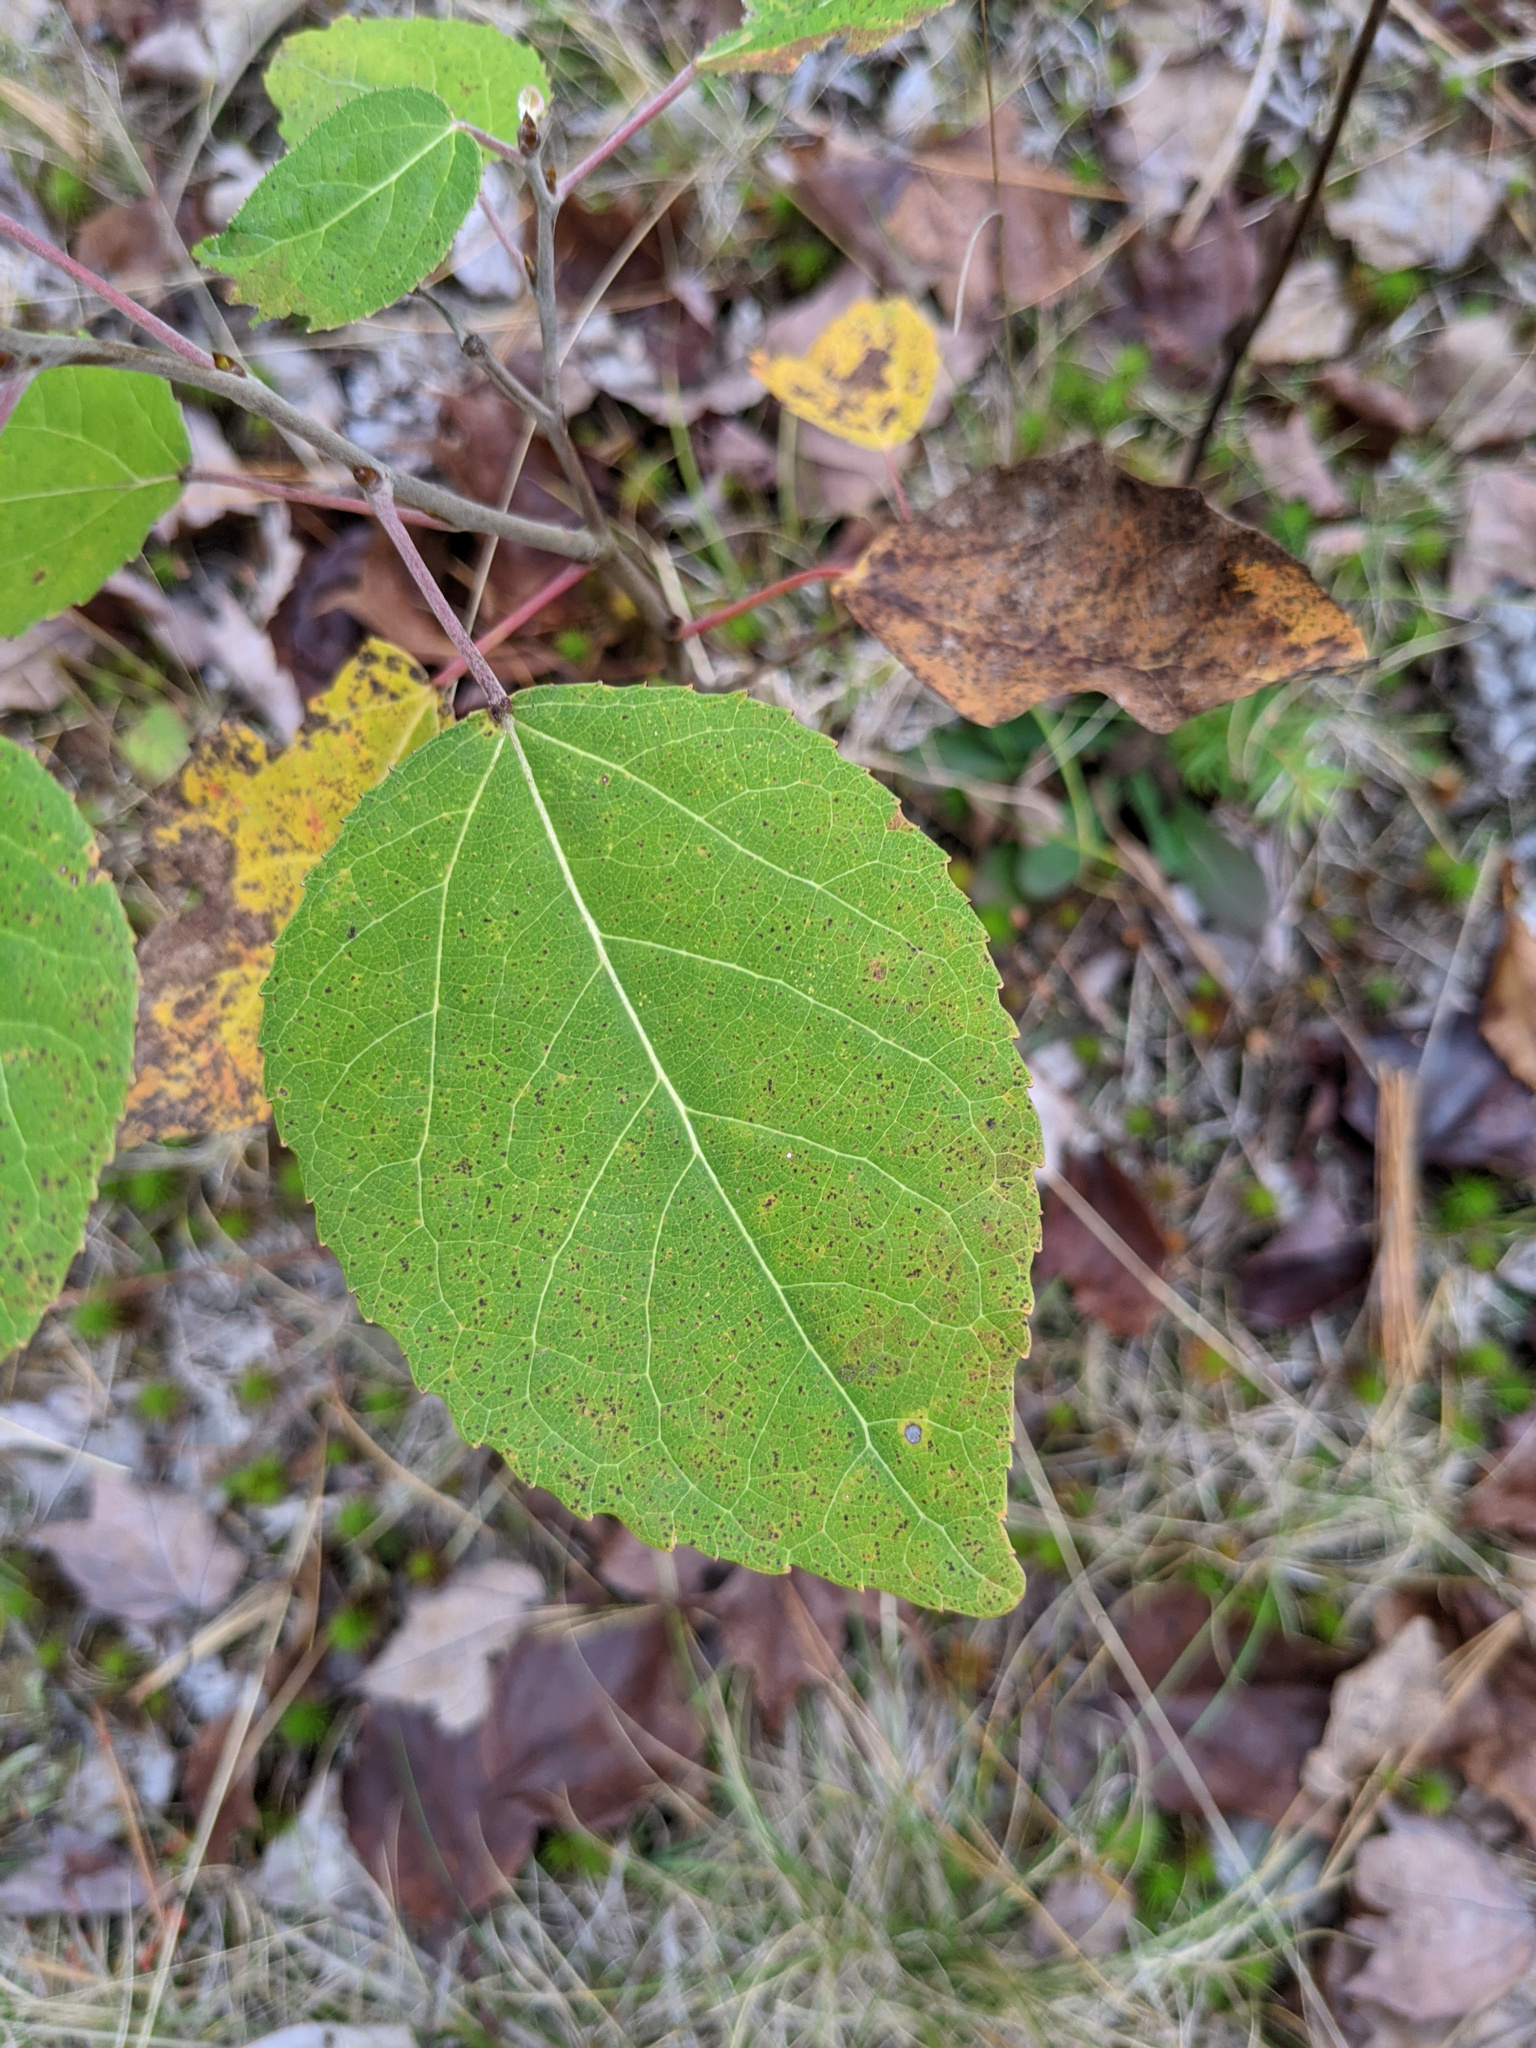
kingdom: Plantae
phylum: Tracheophyta
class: Magnoliopsida
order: Malpighiales
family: Salicaceae
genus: Populus
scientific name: Populus tremuloides
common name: Quaking aspen
